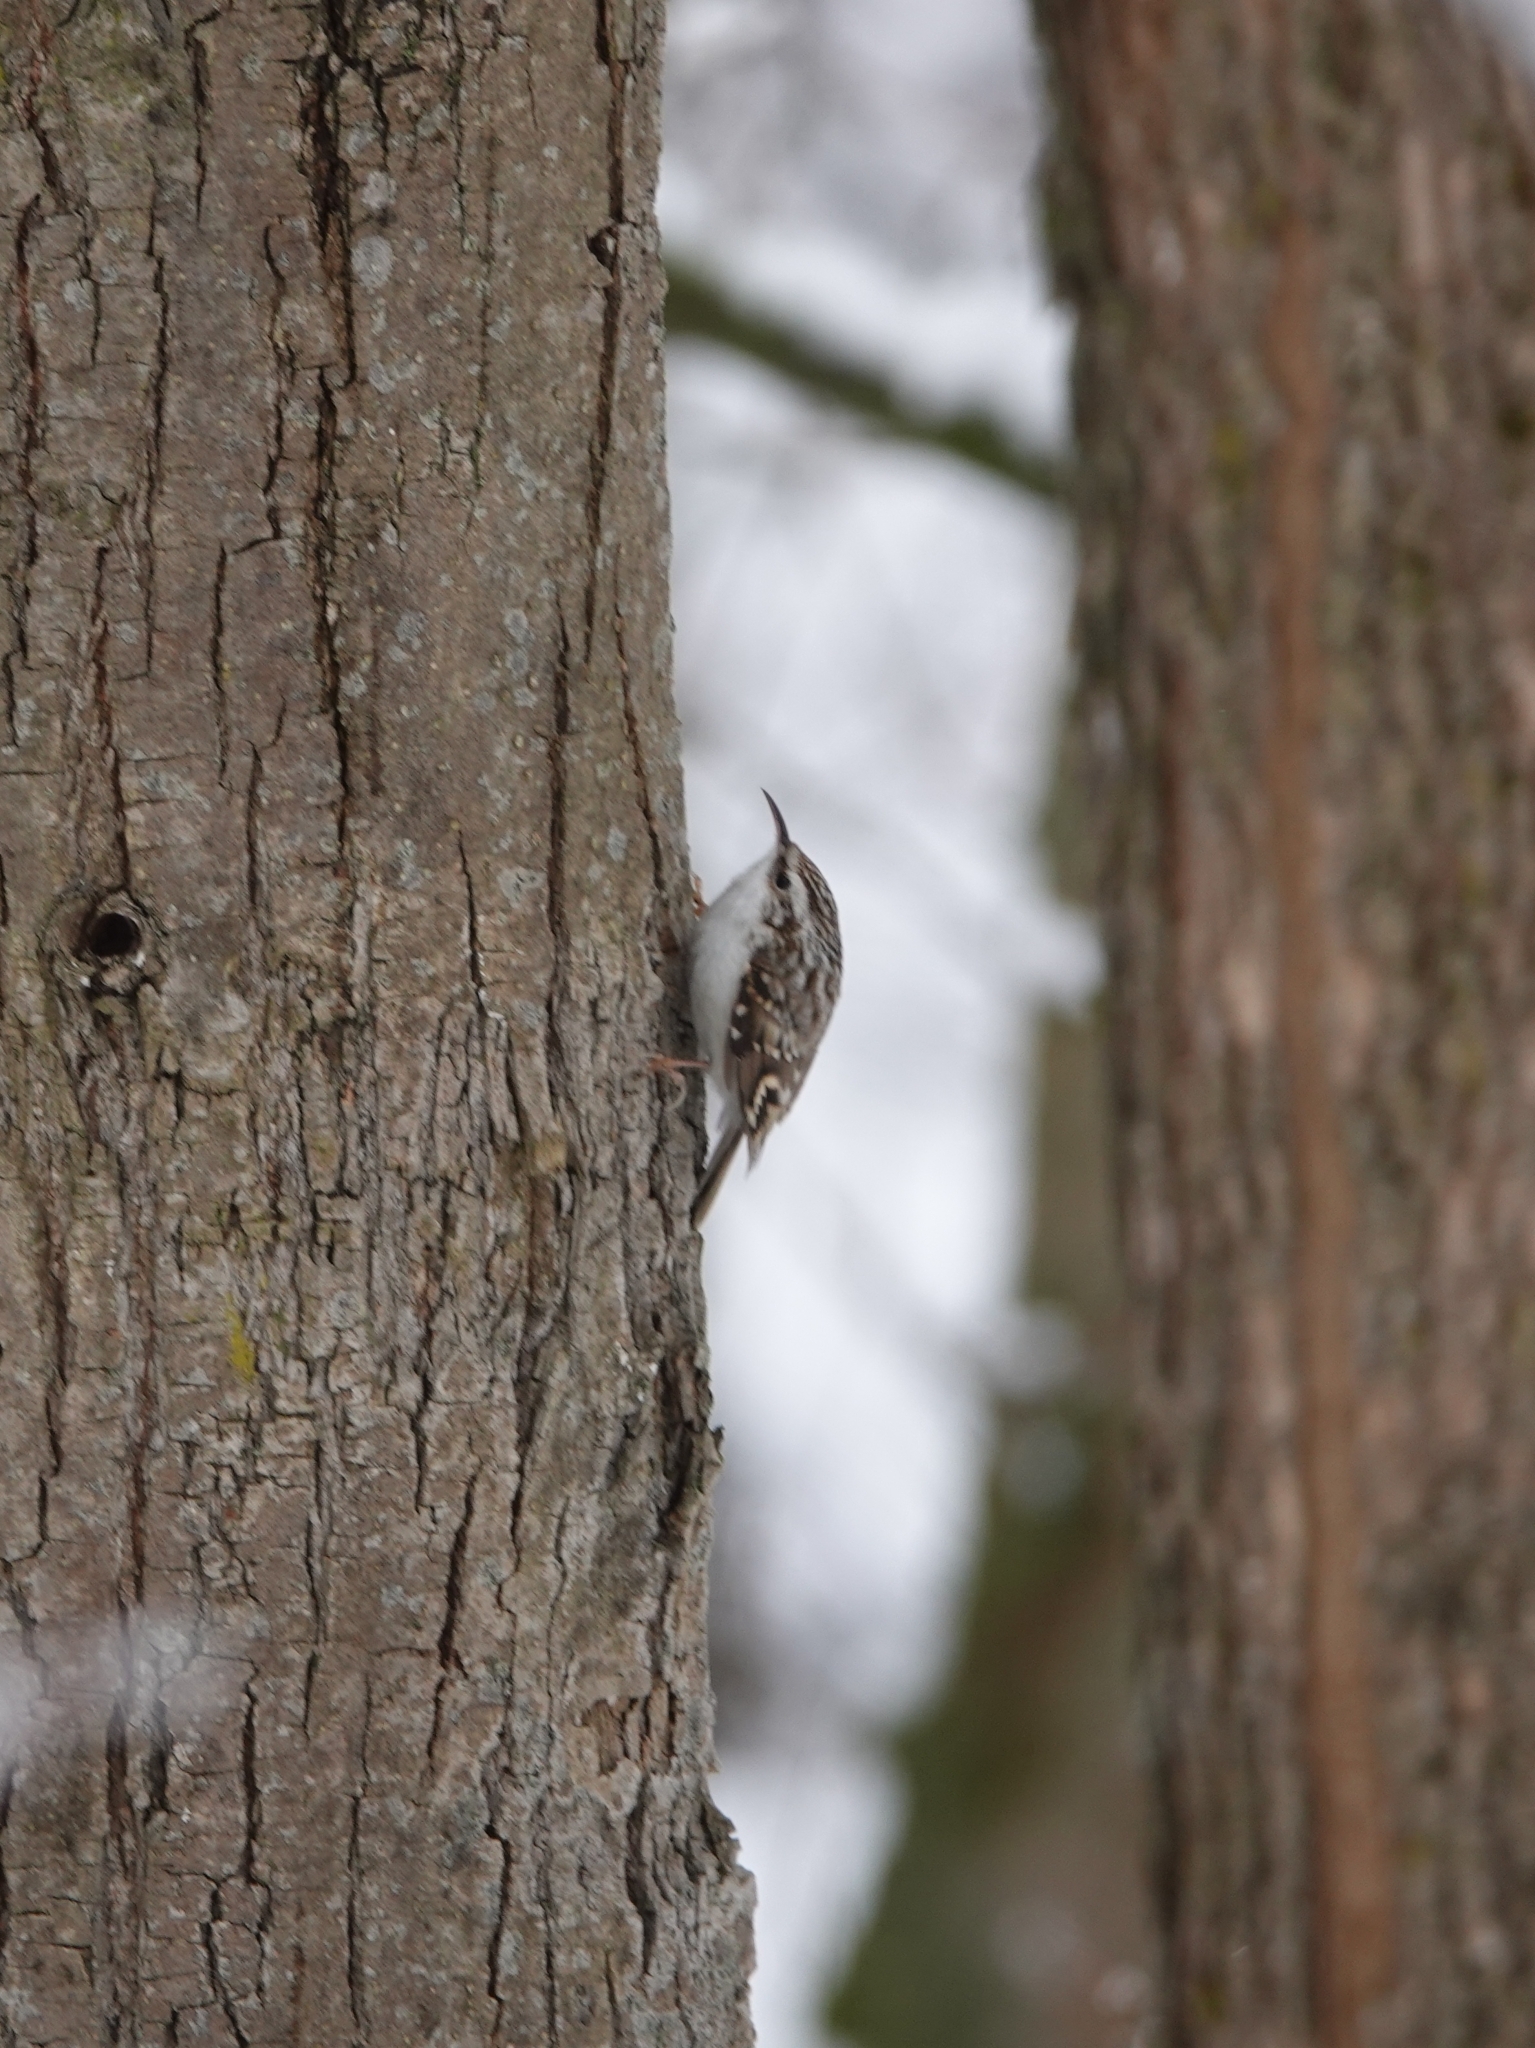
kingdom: Animalia
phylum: Chordata
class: Aves
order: Passeriformes
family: Certhiidae
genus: Certhia
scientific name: Certhia familiaris
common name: Eurasian treecreeper
